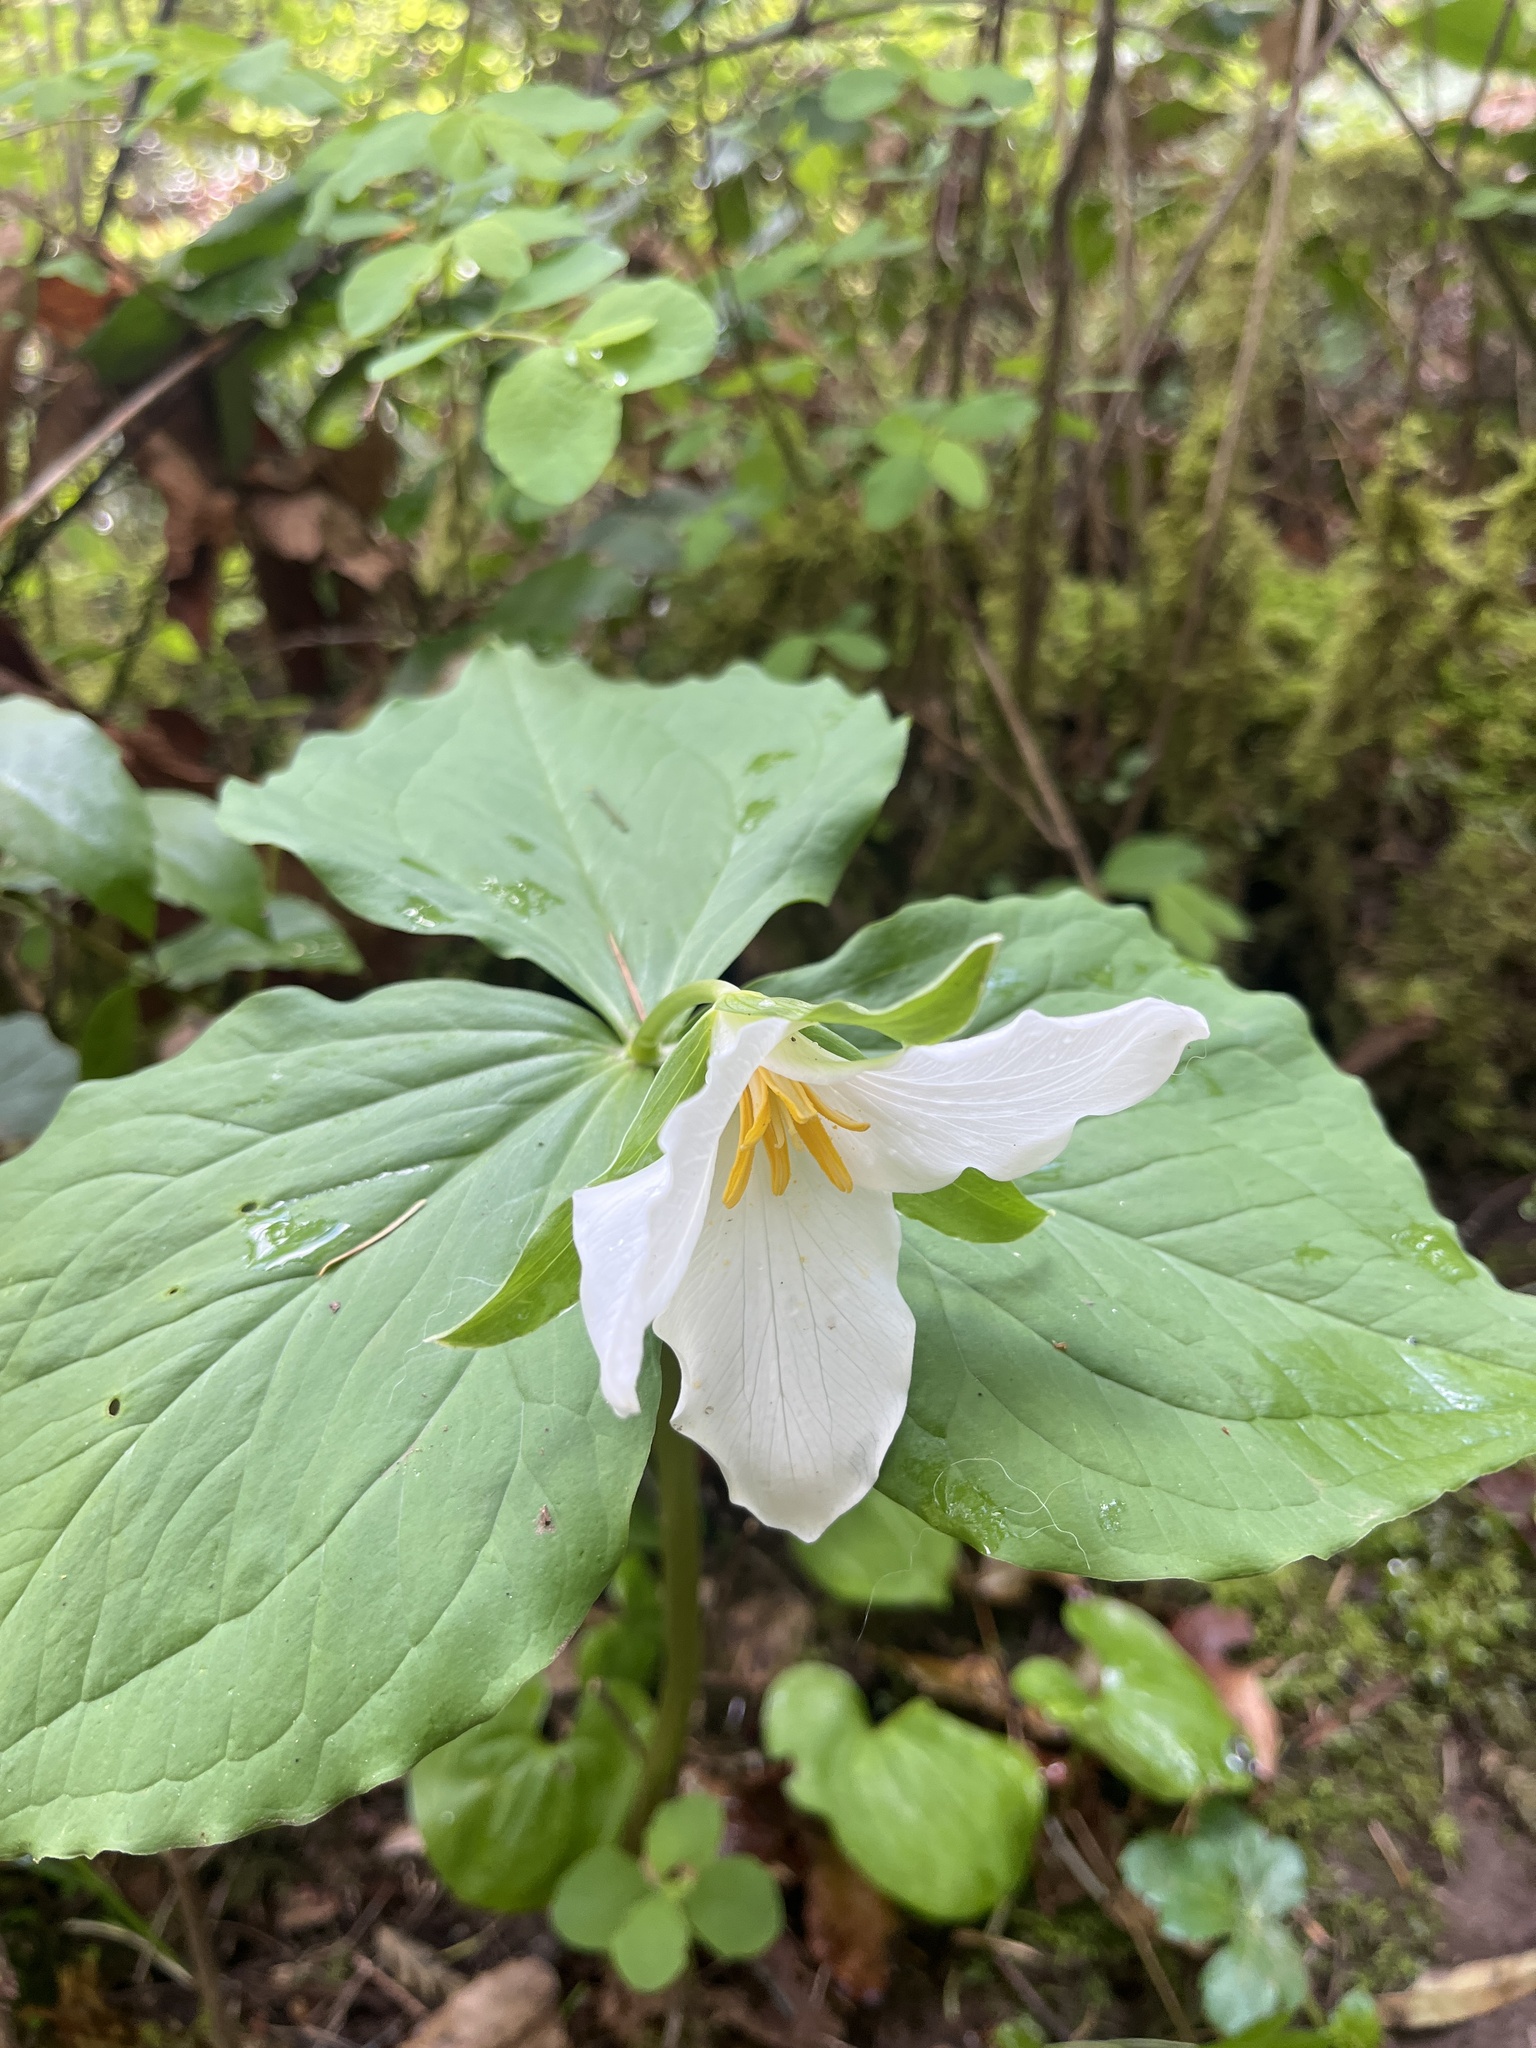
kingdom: Plantae
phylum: Tracheophyta
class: Liliopsida
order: Liliales
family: Melanthiaceae
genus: Trillium
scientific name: Trillium ovatum
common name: Pacific trillium
